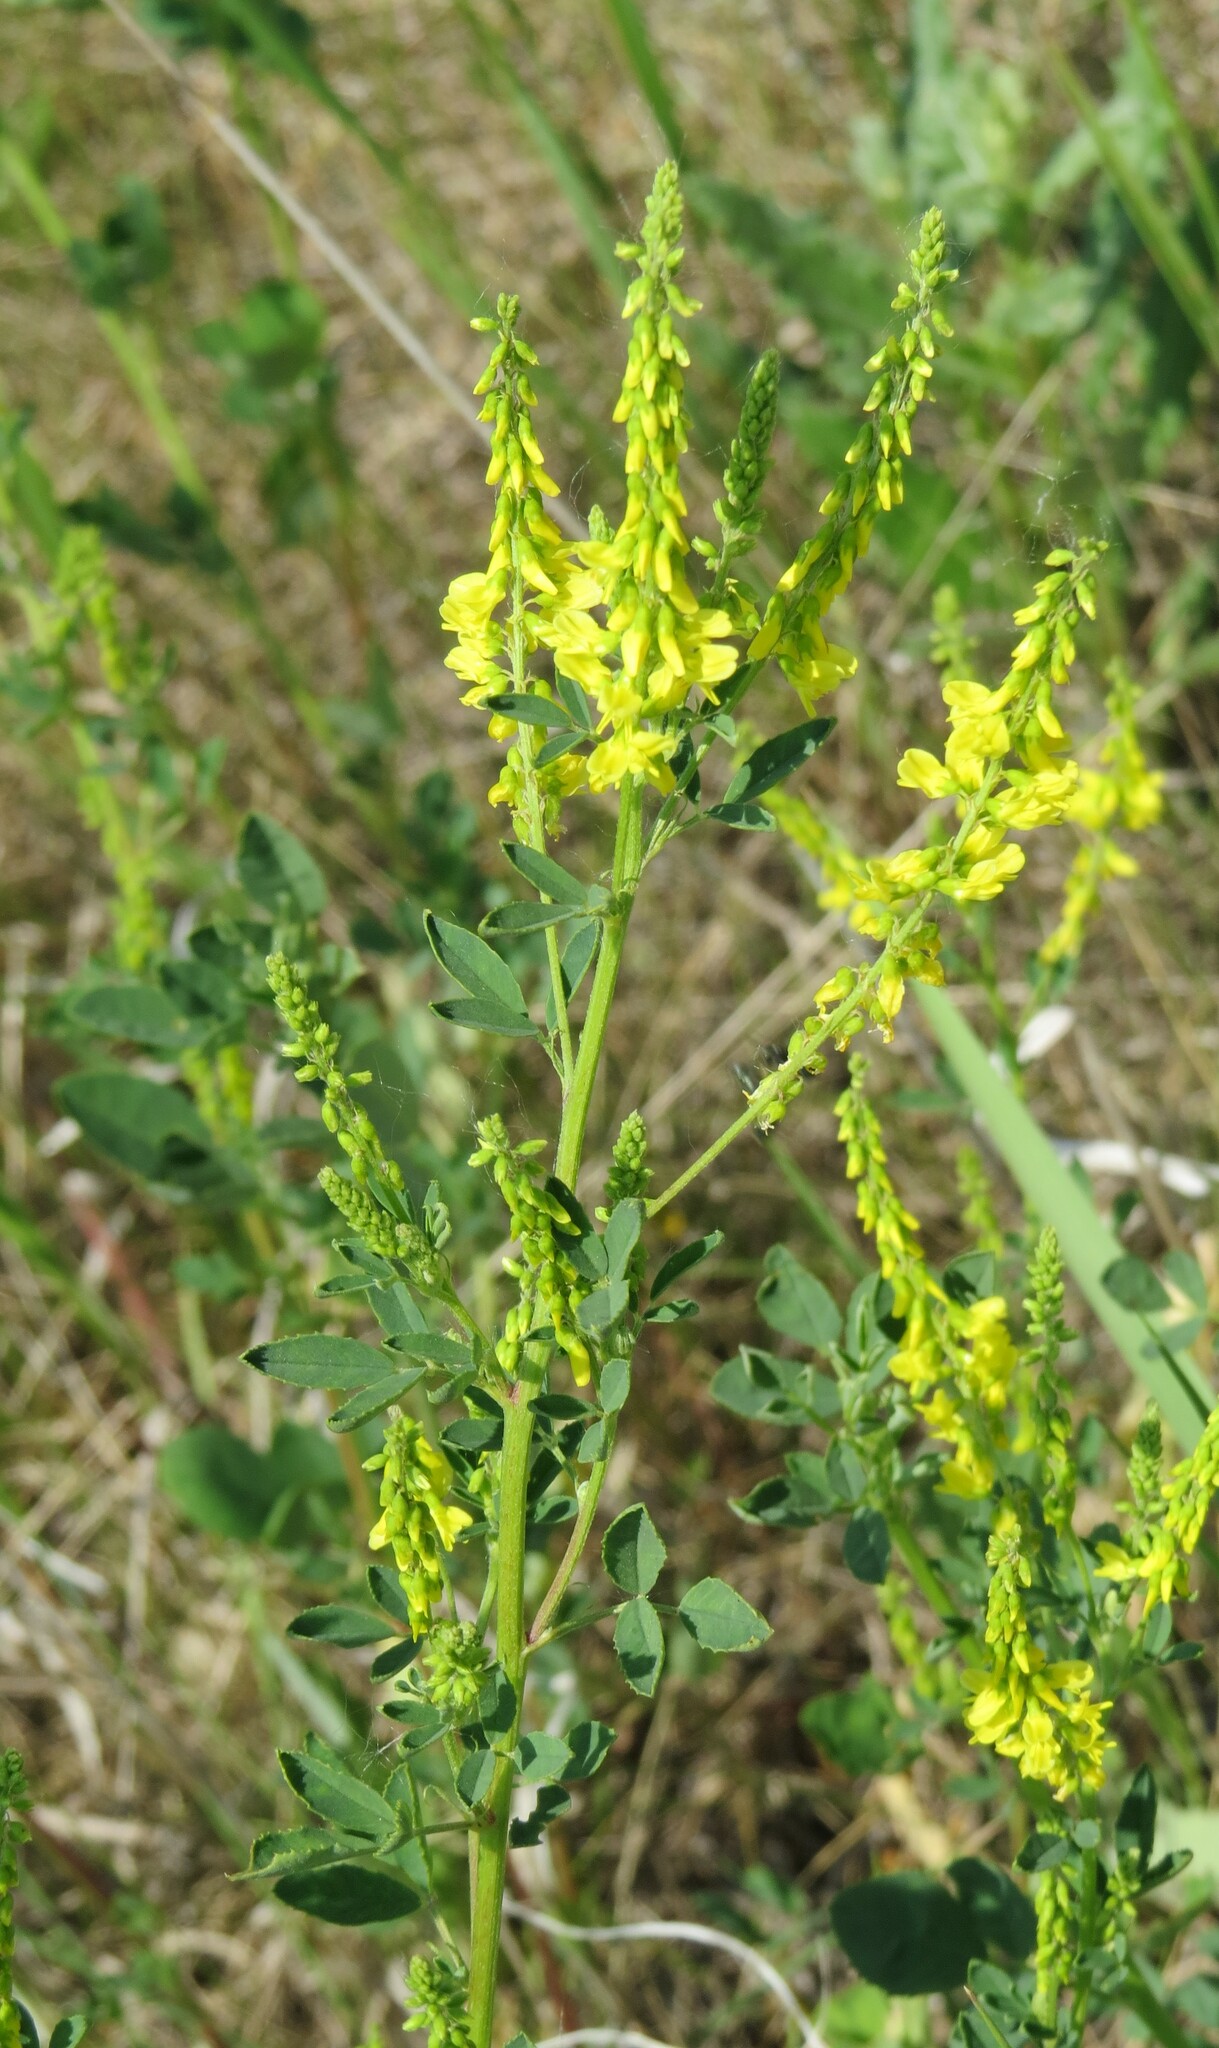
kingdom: Plantae
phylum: Tracheophyta
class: Magnoliopsida
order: Fabales
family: Fabaceae
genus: Melilotus
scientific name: Melilotus officinalis
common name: Sweetclover
